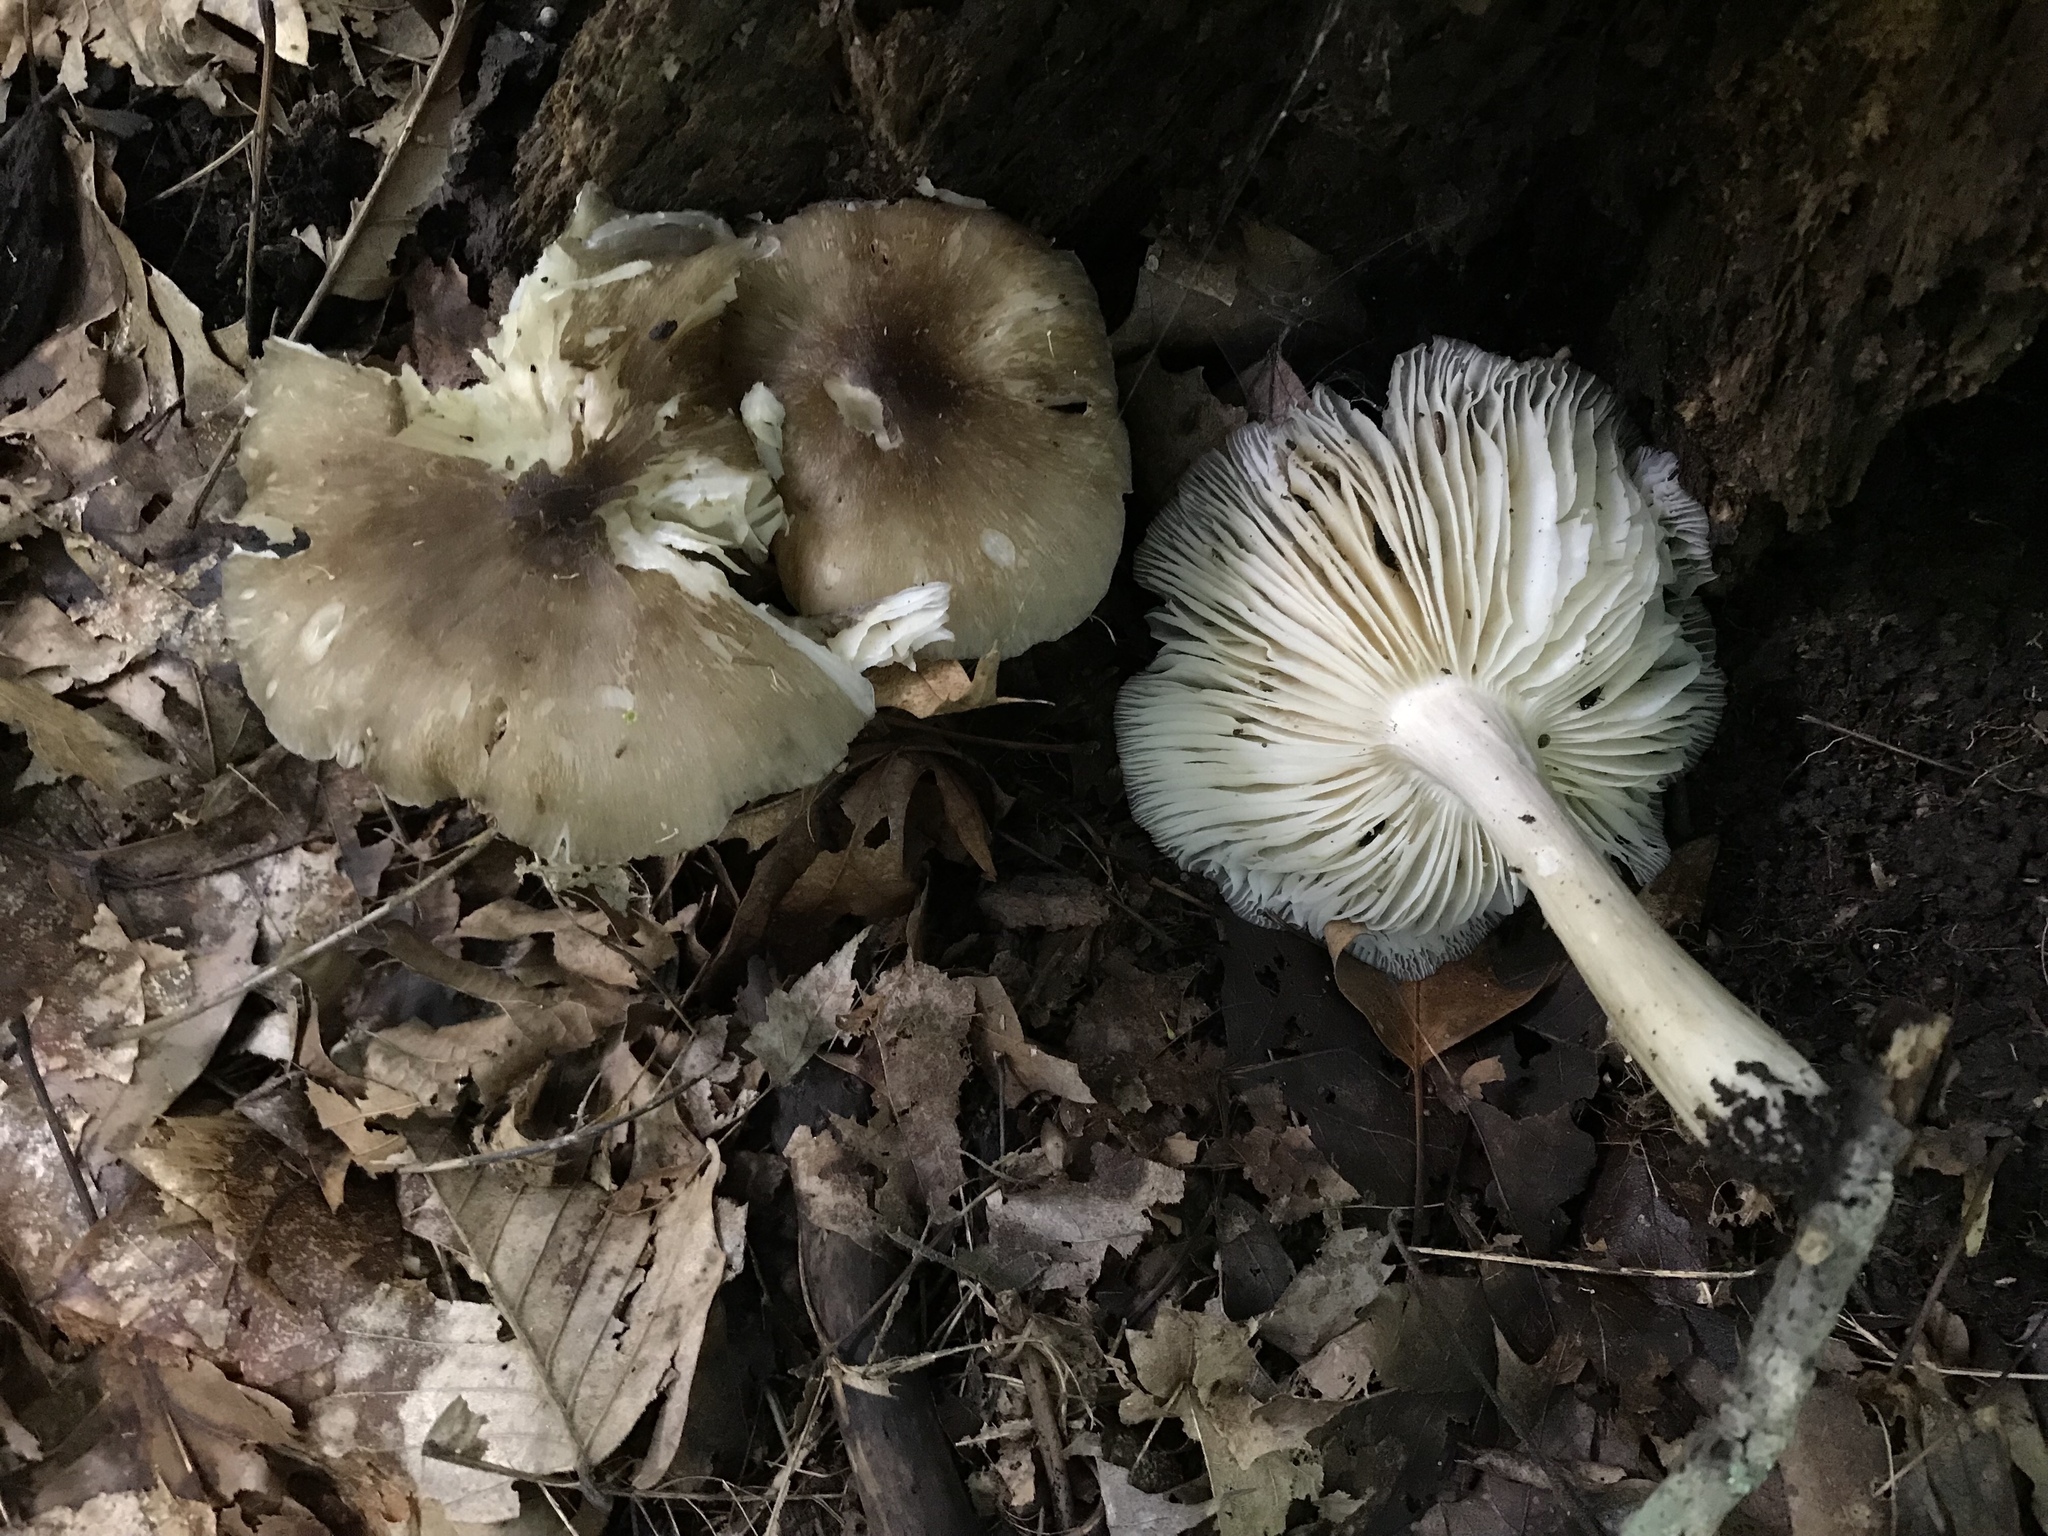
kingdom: Fungi
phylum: Basidiomycota
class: Agaricomycetes
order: Agaricales
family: Tricholomataceae
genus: Megacollybia
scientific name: Megacollybia rodmanii
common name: Eastern american platterful mushroom
